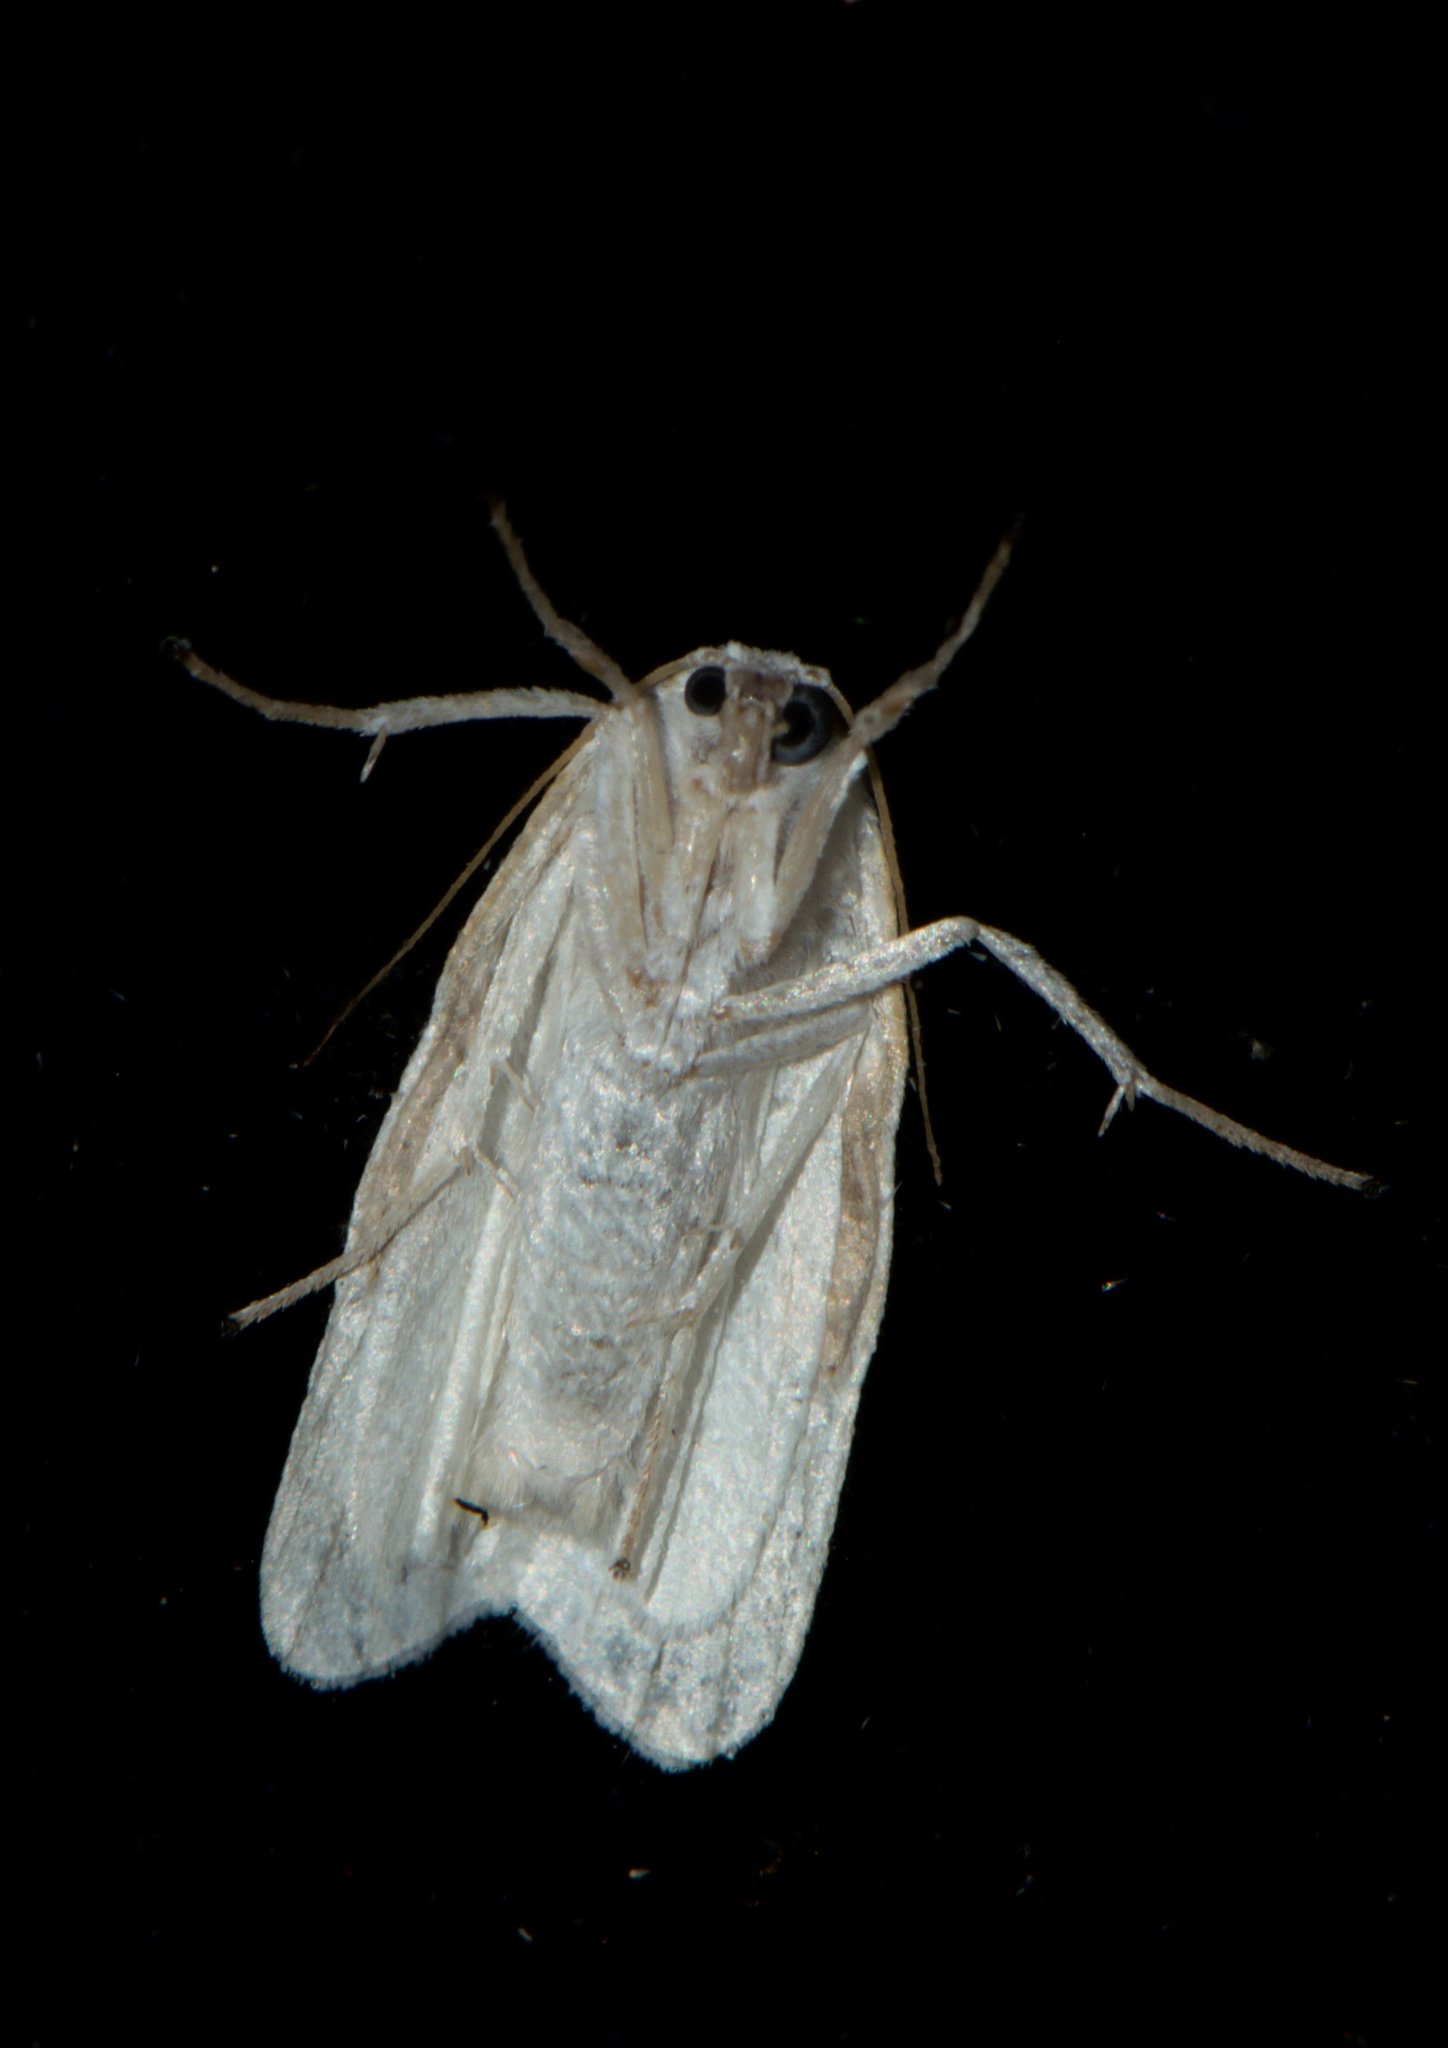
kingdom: Animalia
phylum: Arthropoda
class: Insecta
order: Lepidoptera
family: Erebidae
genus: Cyana
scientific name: Cyana arama
